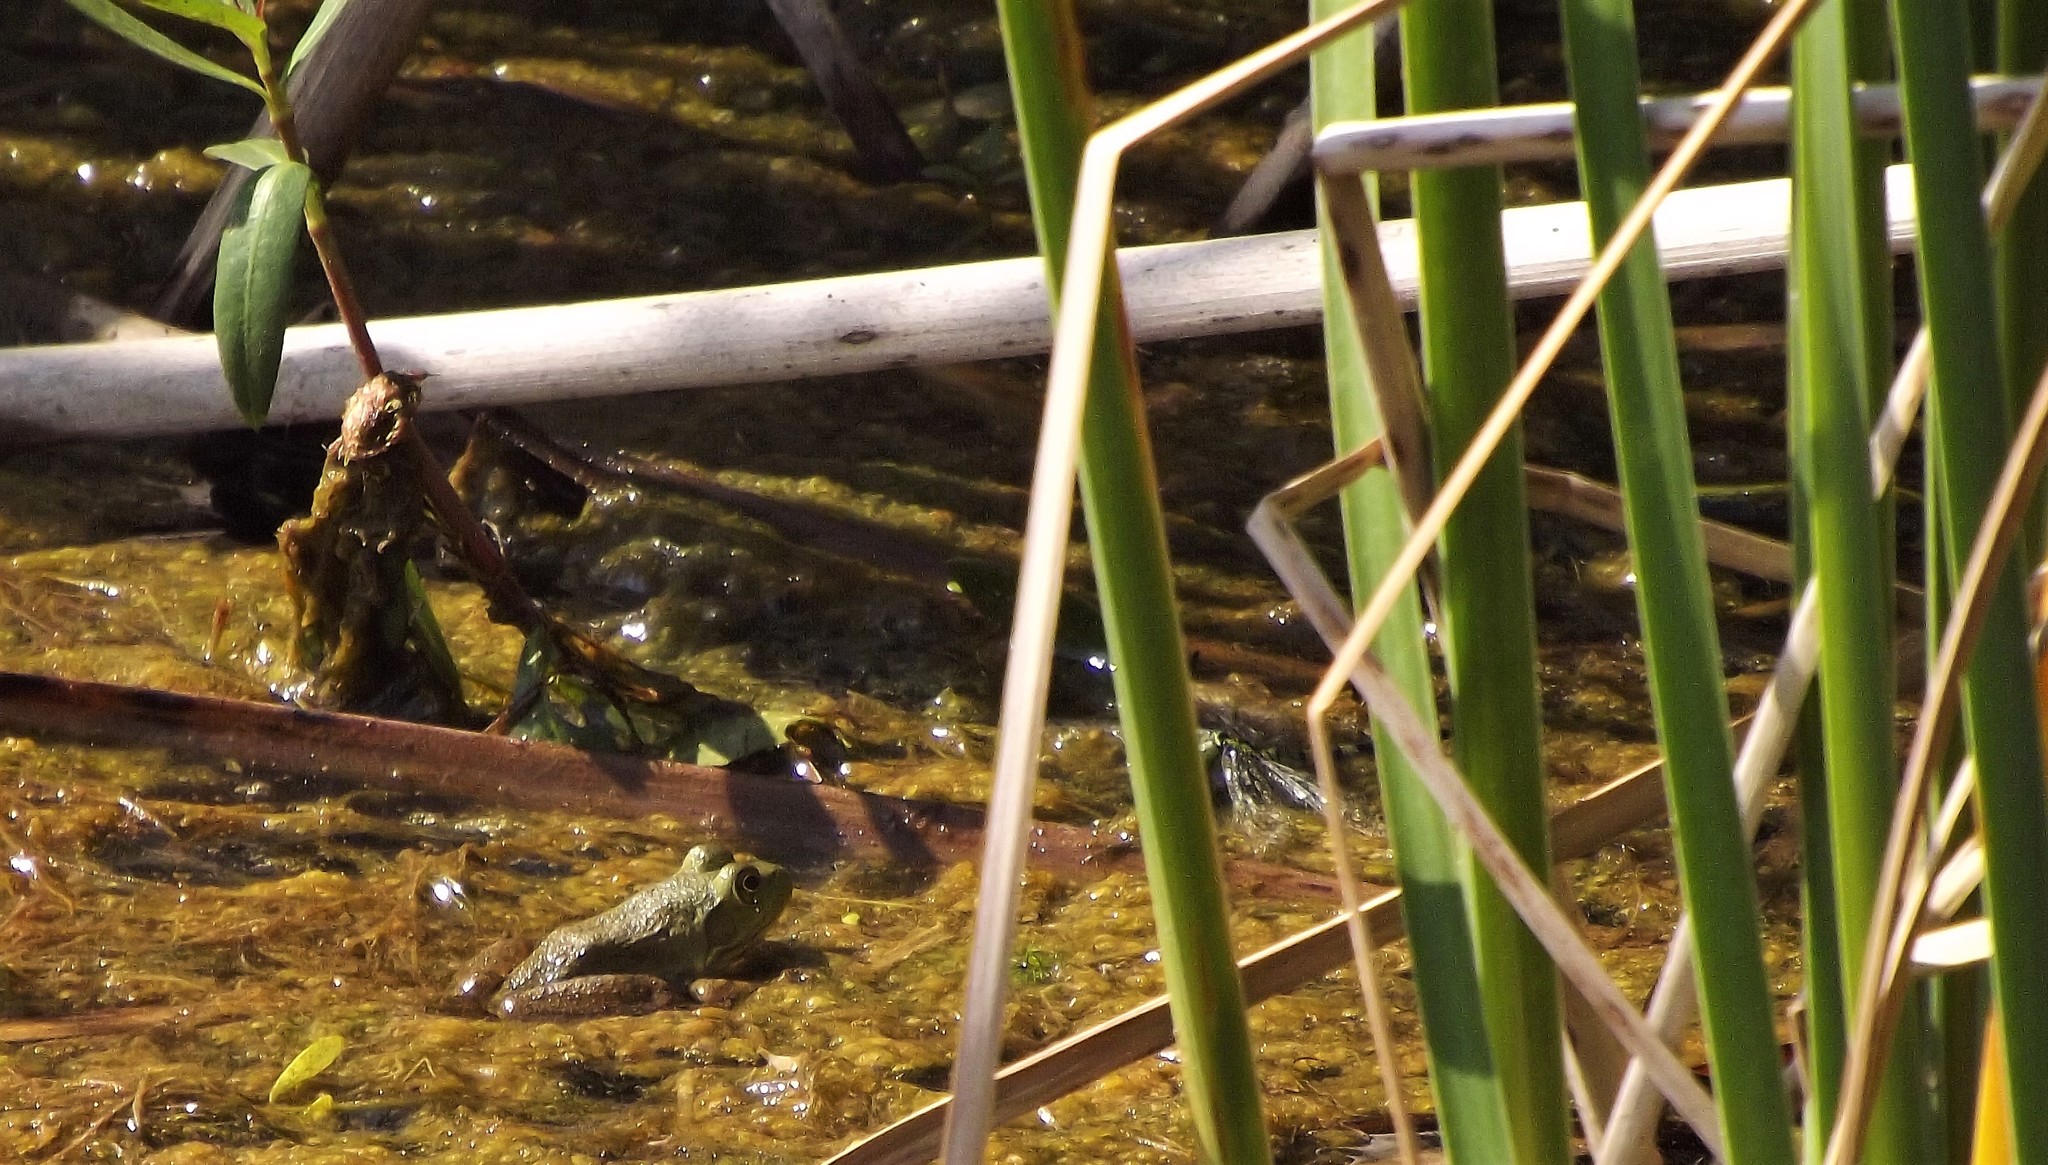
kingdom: Animalia
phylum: Chordata
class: Amphibia
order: Anura
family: Ranidae
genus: Lithobates
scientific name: Lithobates catesbeianus
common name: American bullfrog
